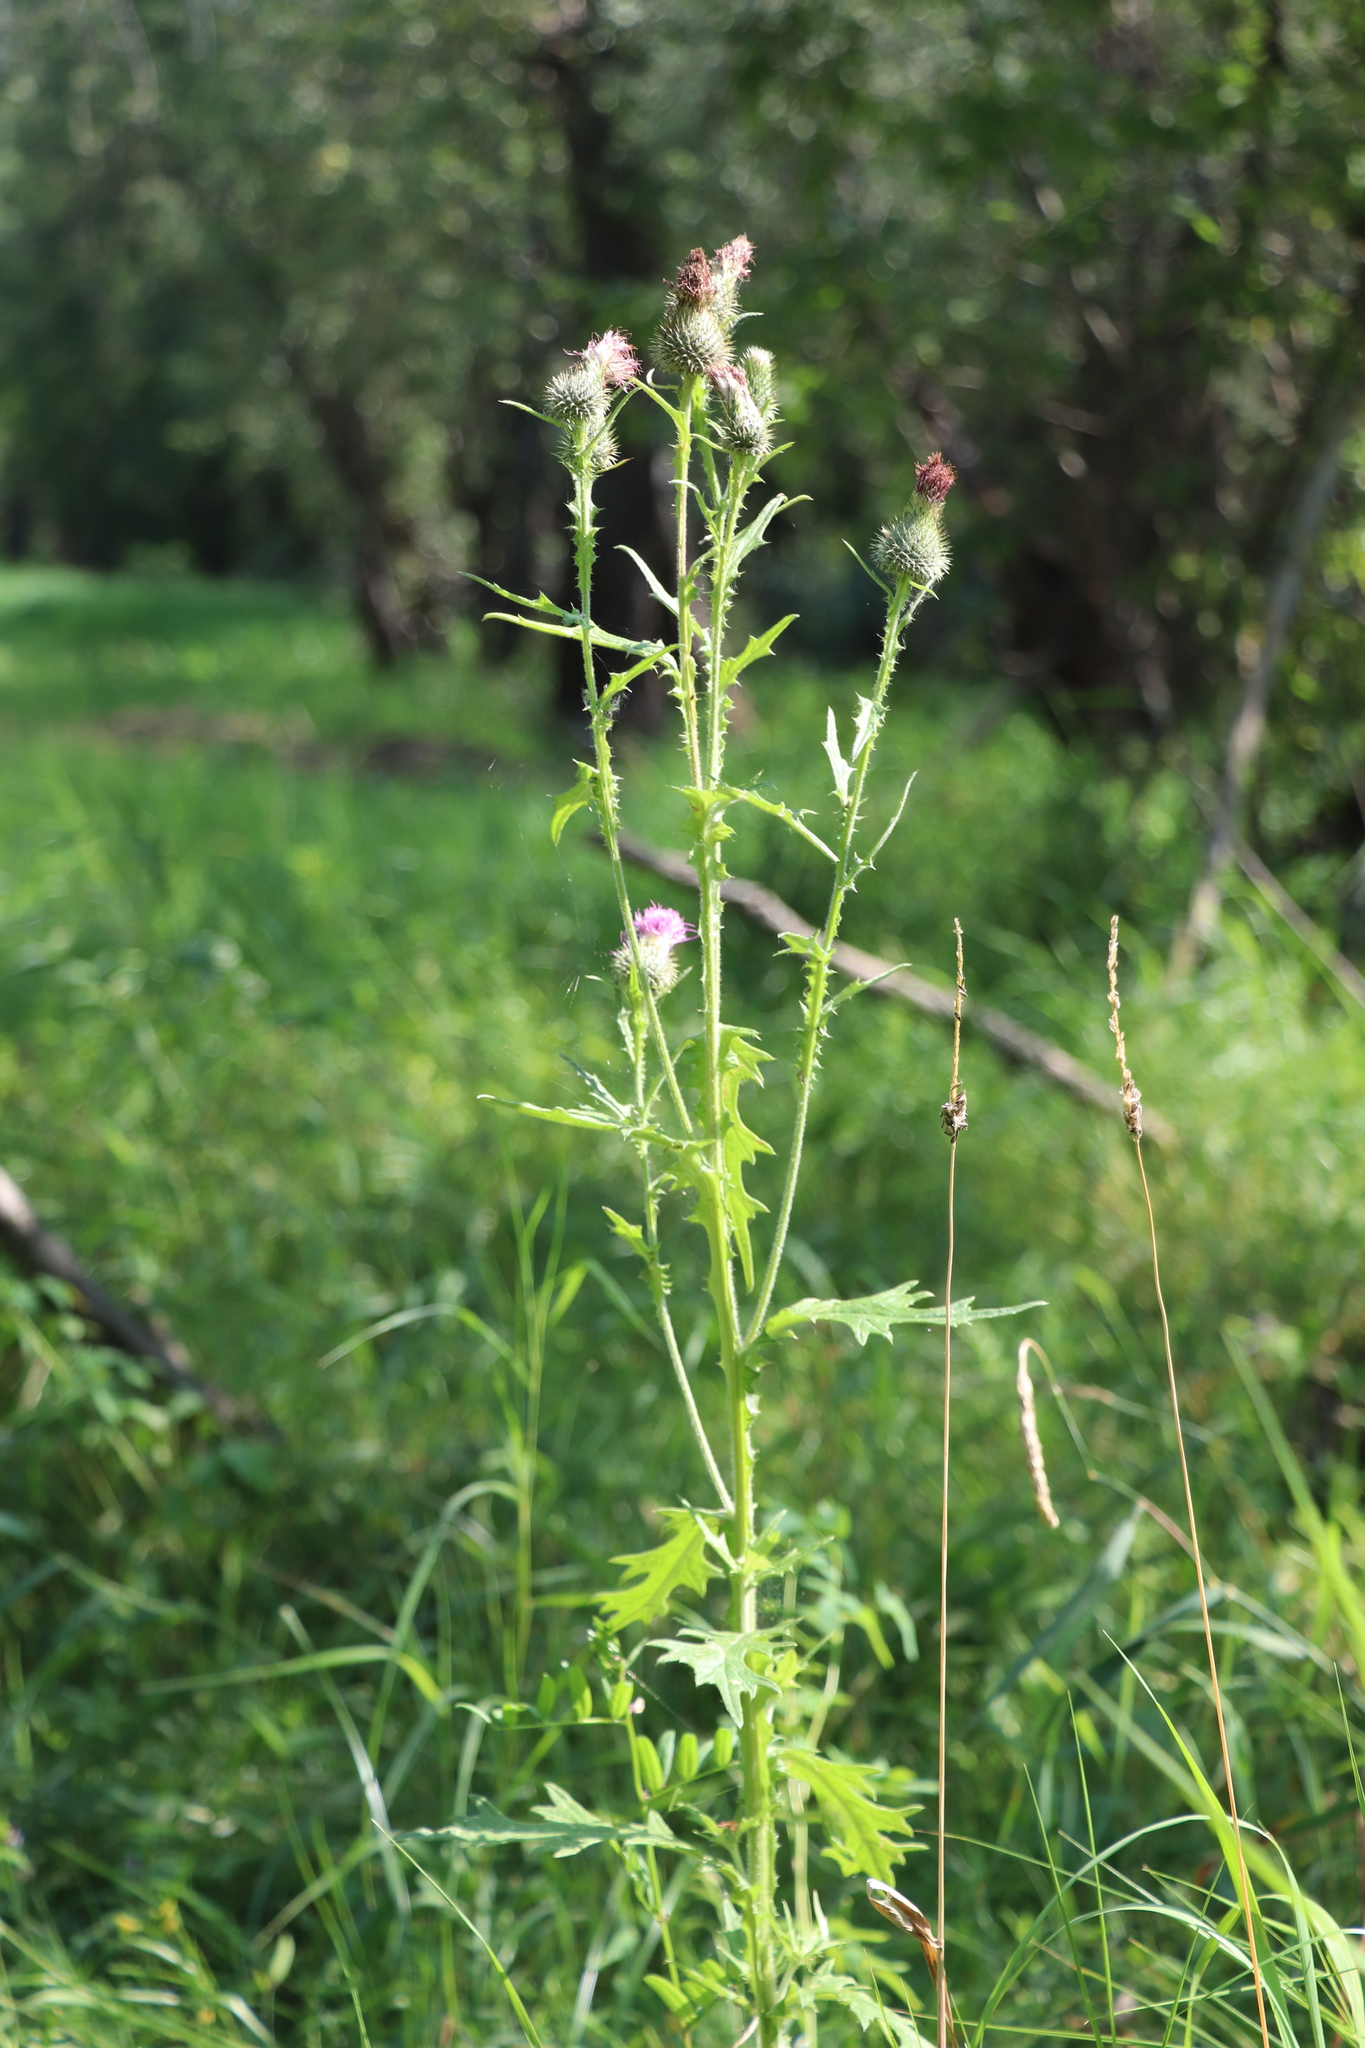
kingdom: Plantae
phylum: Tracheophyta
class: Magnoliopsida
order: Asterales
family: Asteraceae
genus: Cirsium
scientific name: Cirsium vulgare
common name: Bull thistle
